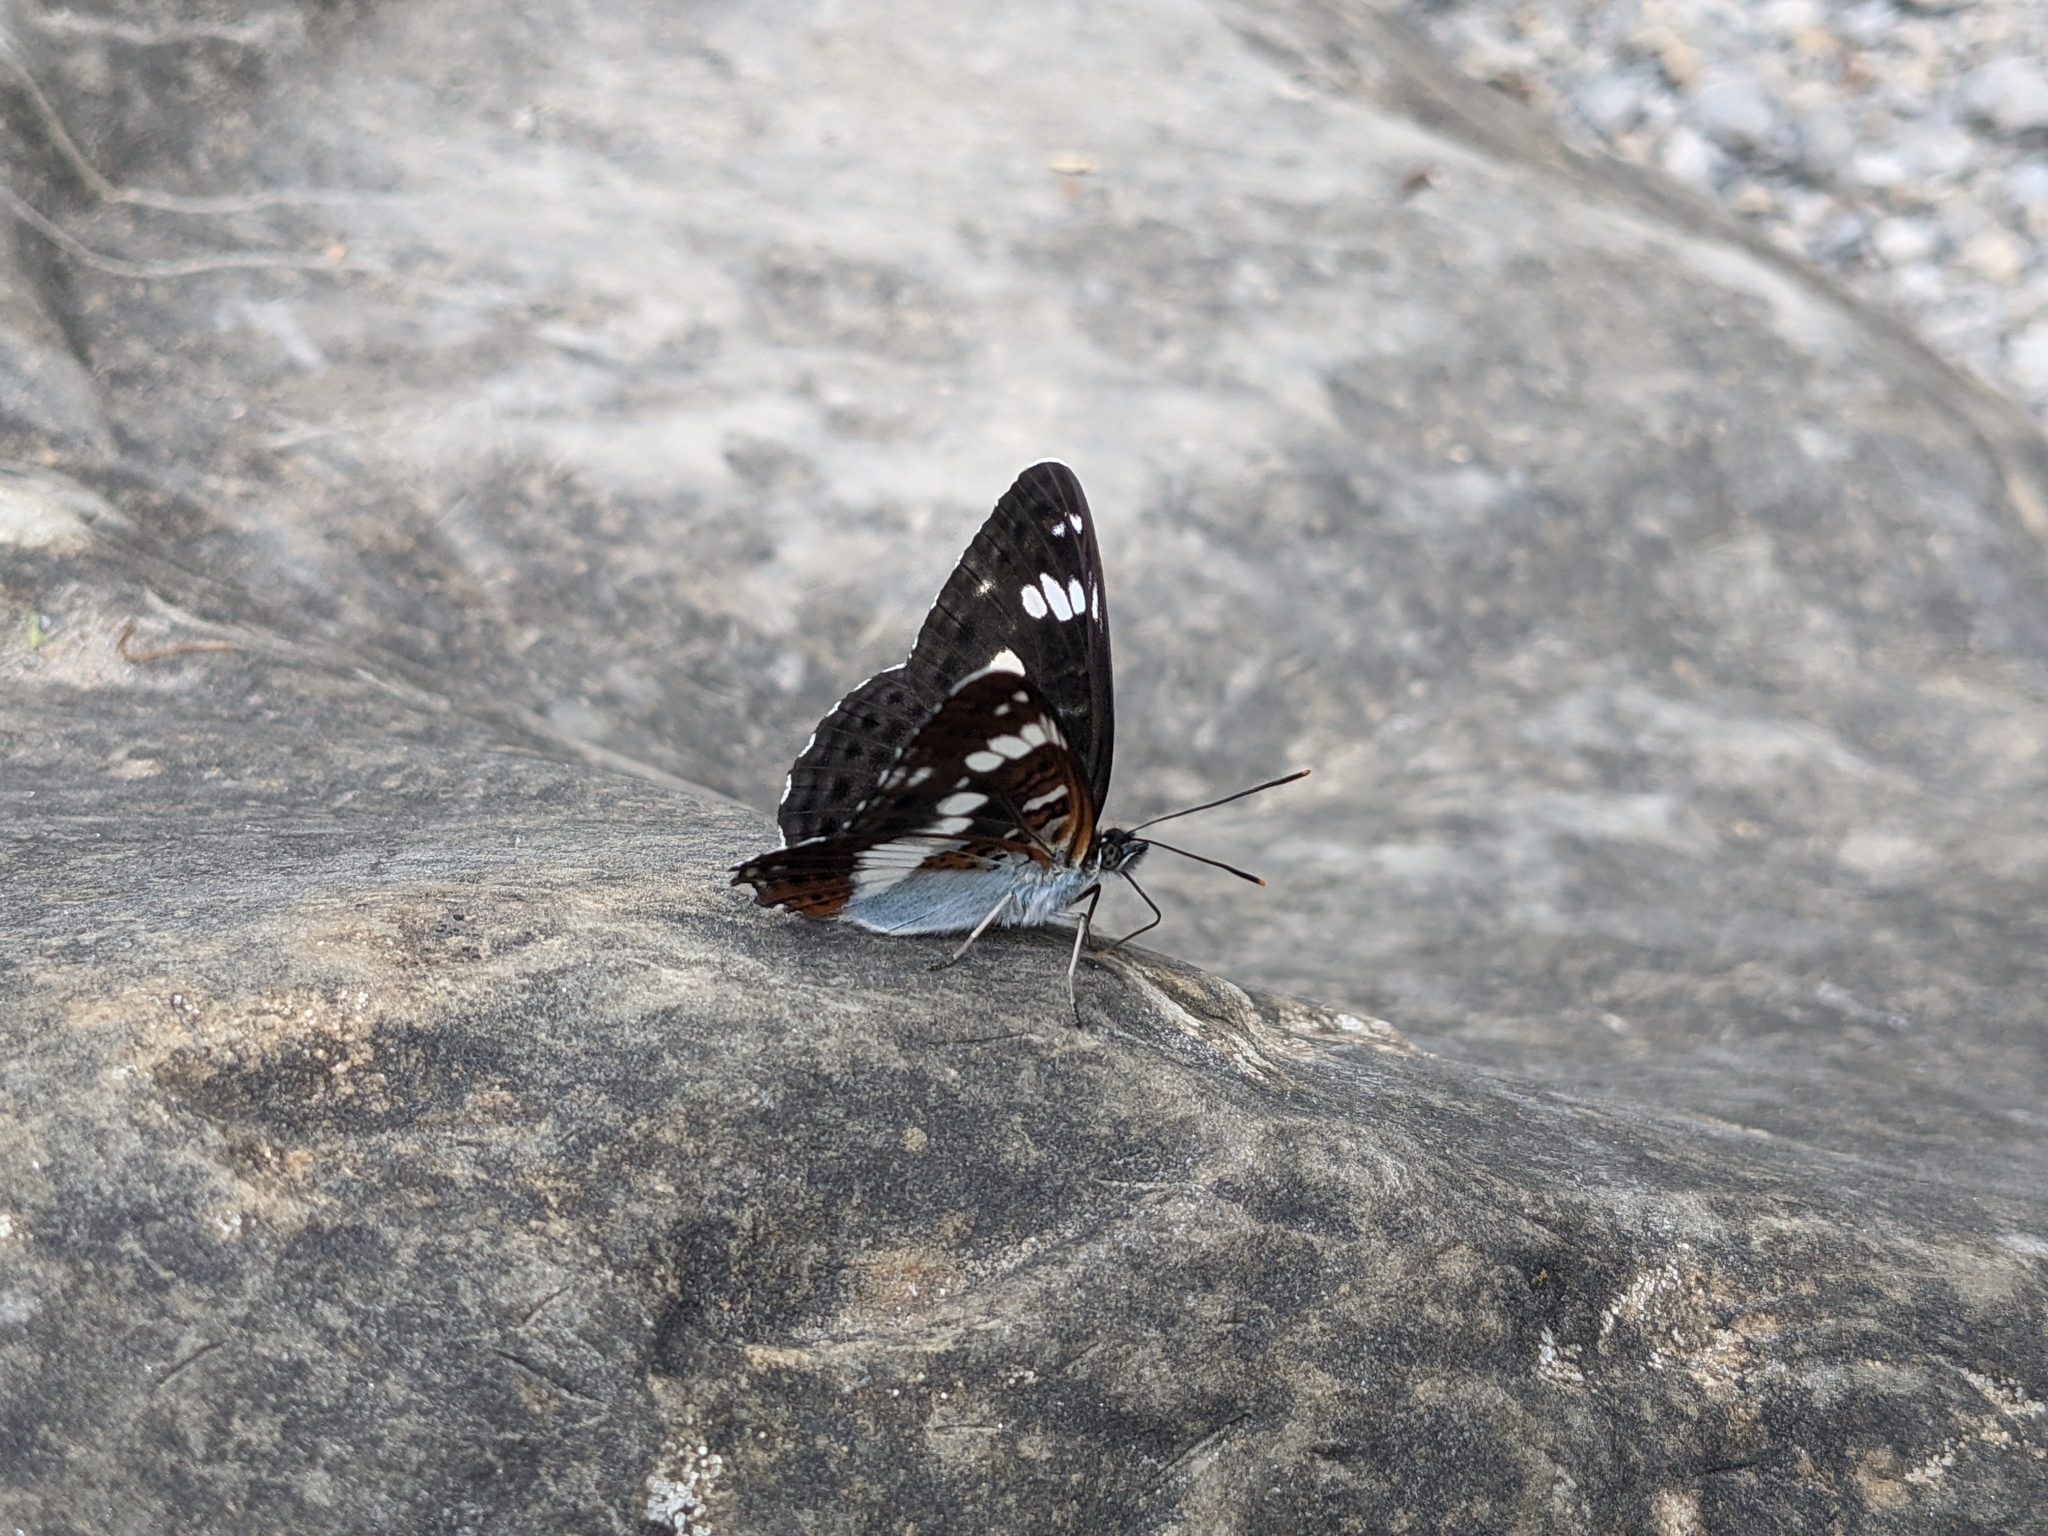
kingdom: Animalia
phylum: Arthropoda
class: Insecta
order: Lepidoptera
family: Nymphalidae
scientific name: Nymphalidae
